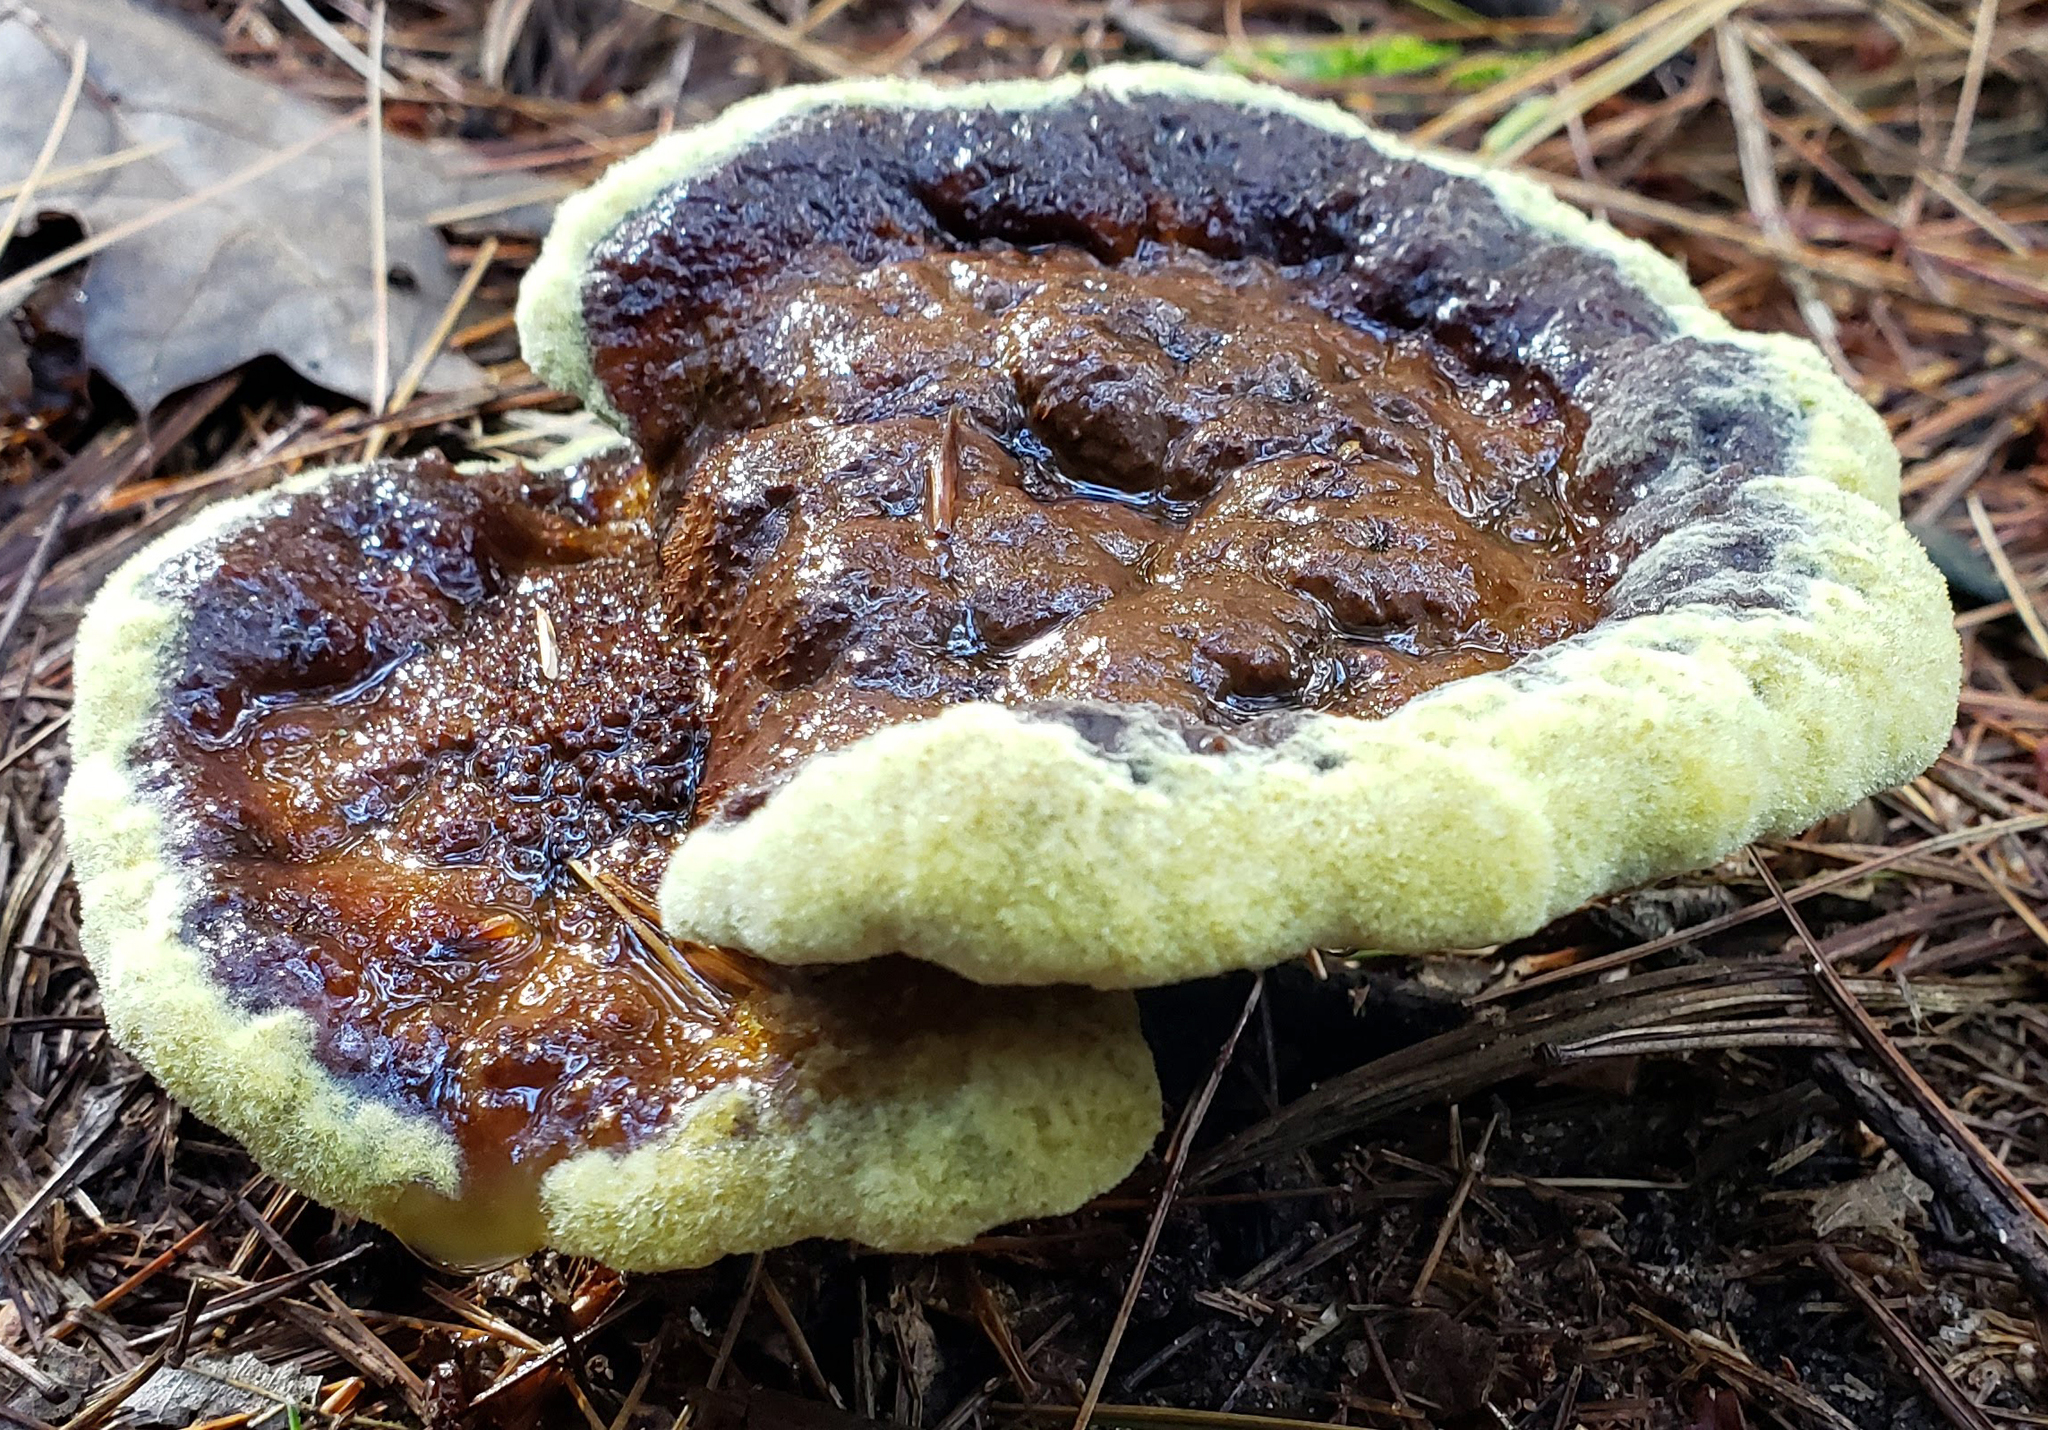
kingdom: Fungi
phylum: Basidiomycota
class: Agaricomycetes
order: Polyporales
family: Laetiporaceae
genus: Phaeolus
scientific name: Phaeolus schweinitzii
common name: Dyer's mazegill
